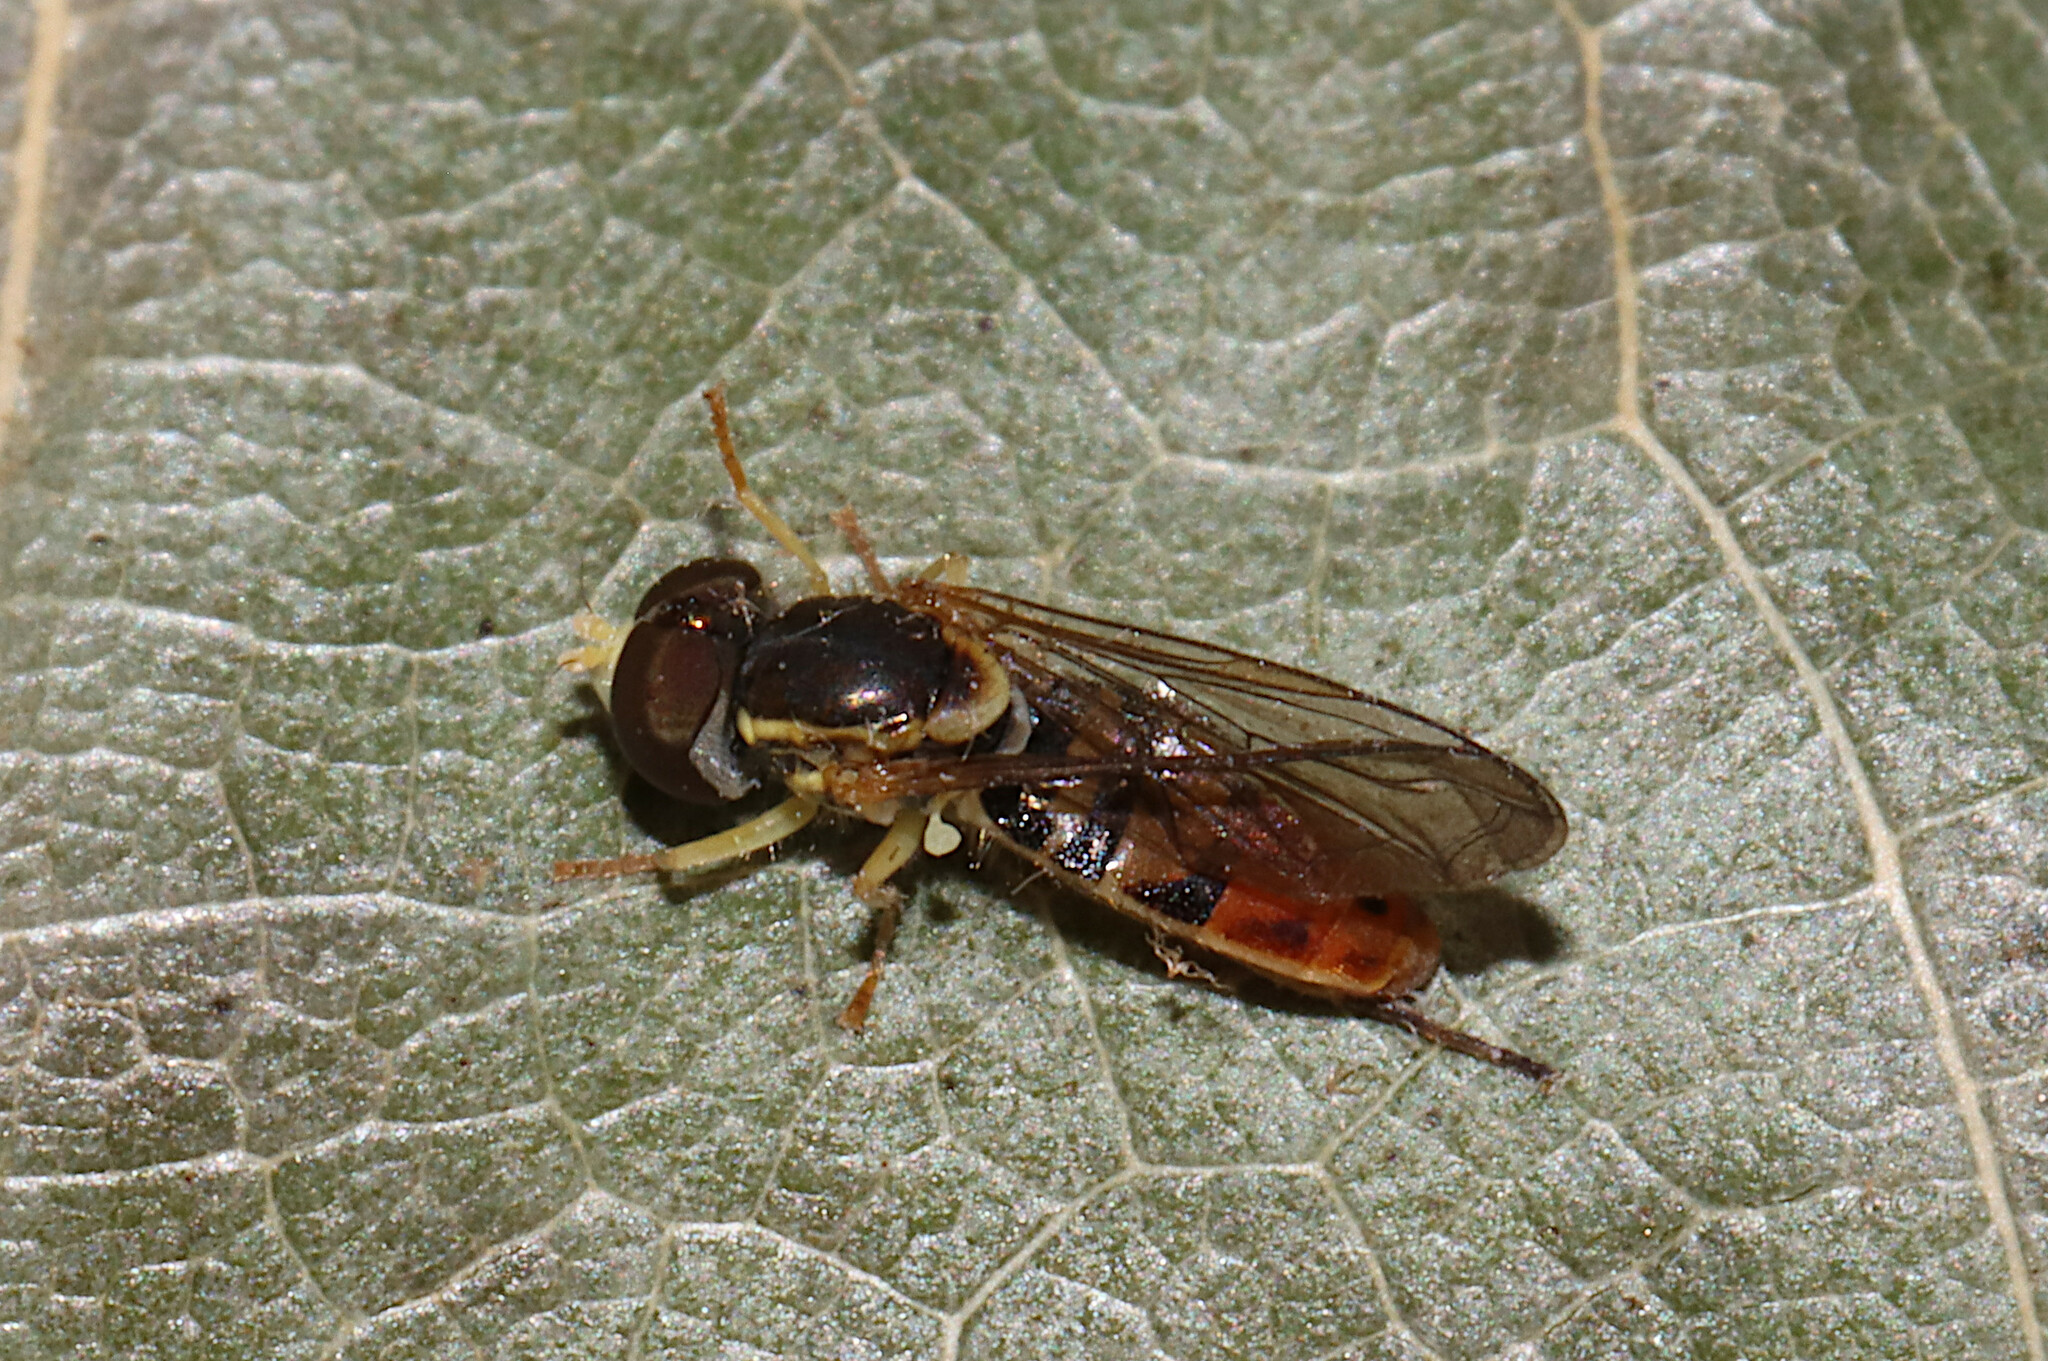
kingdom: Animalia
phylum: Arthropoda
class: Insecta
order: Diptera
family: Syrphidae
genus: Toxomerus
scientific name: Toxomerus marginatus
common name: Syrphid fly
